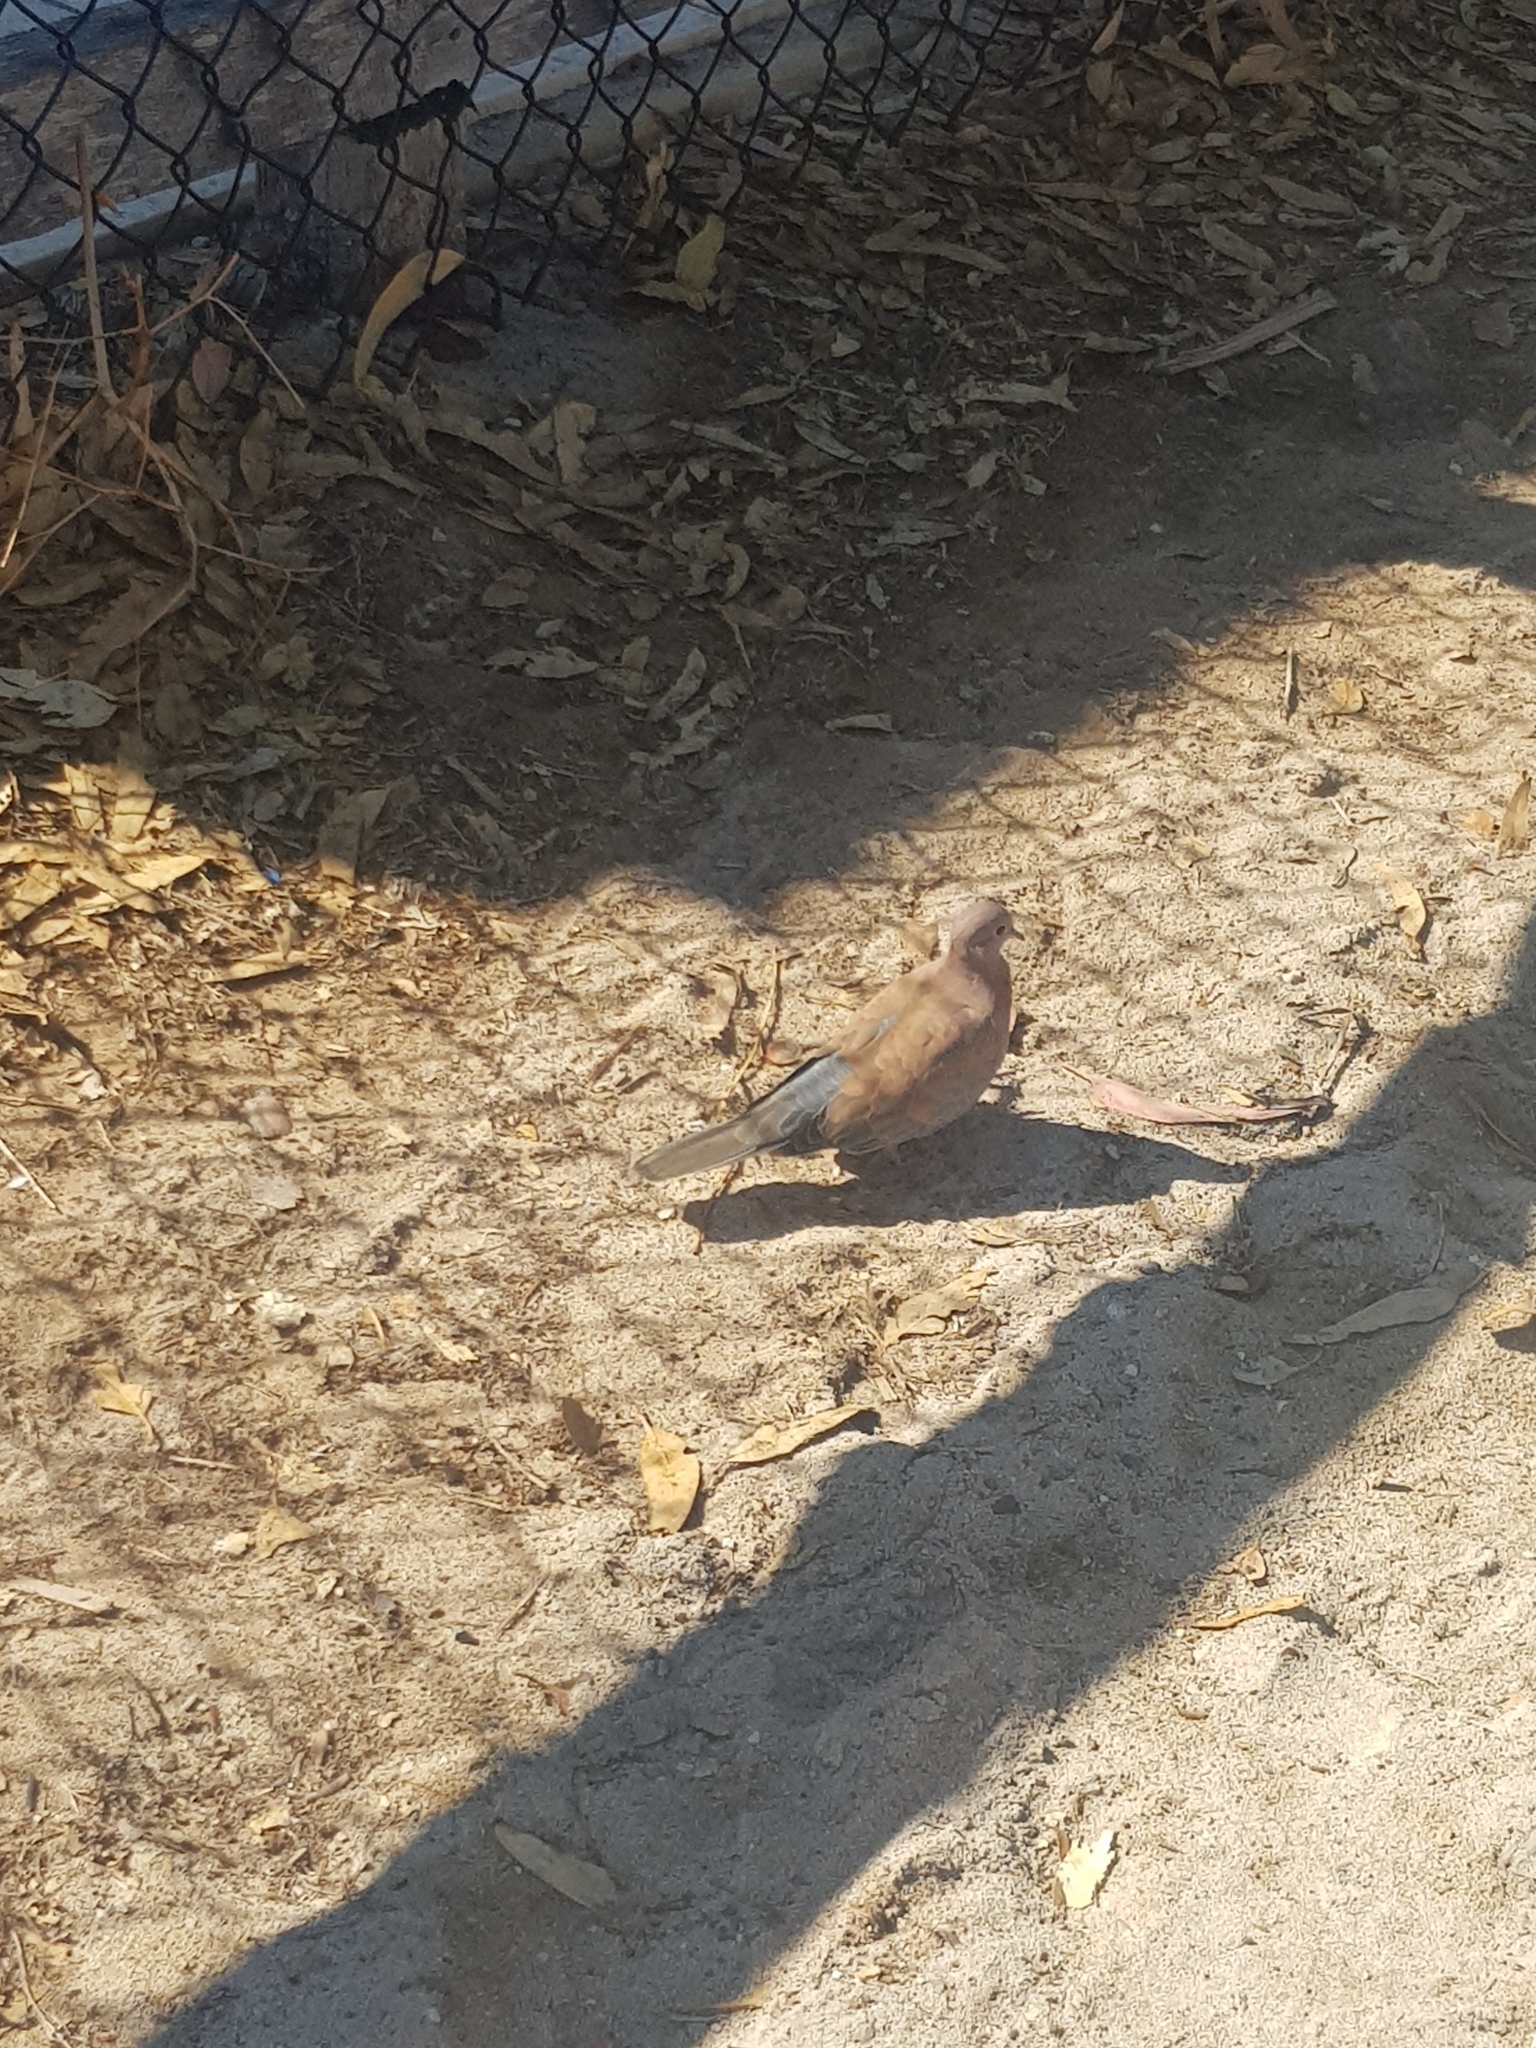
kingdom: Animalia
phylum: Chordata
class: Aves
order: Columbiformes
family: Columbidae
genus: Spilopelia
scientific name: Spilopelia senegalensis
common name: Laughing dove
